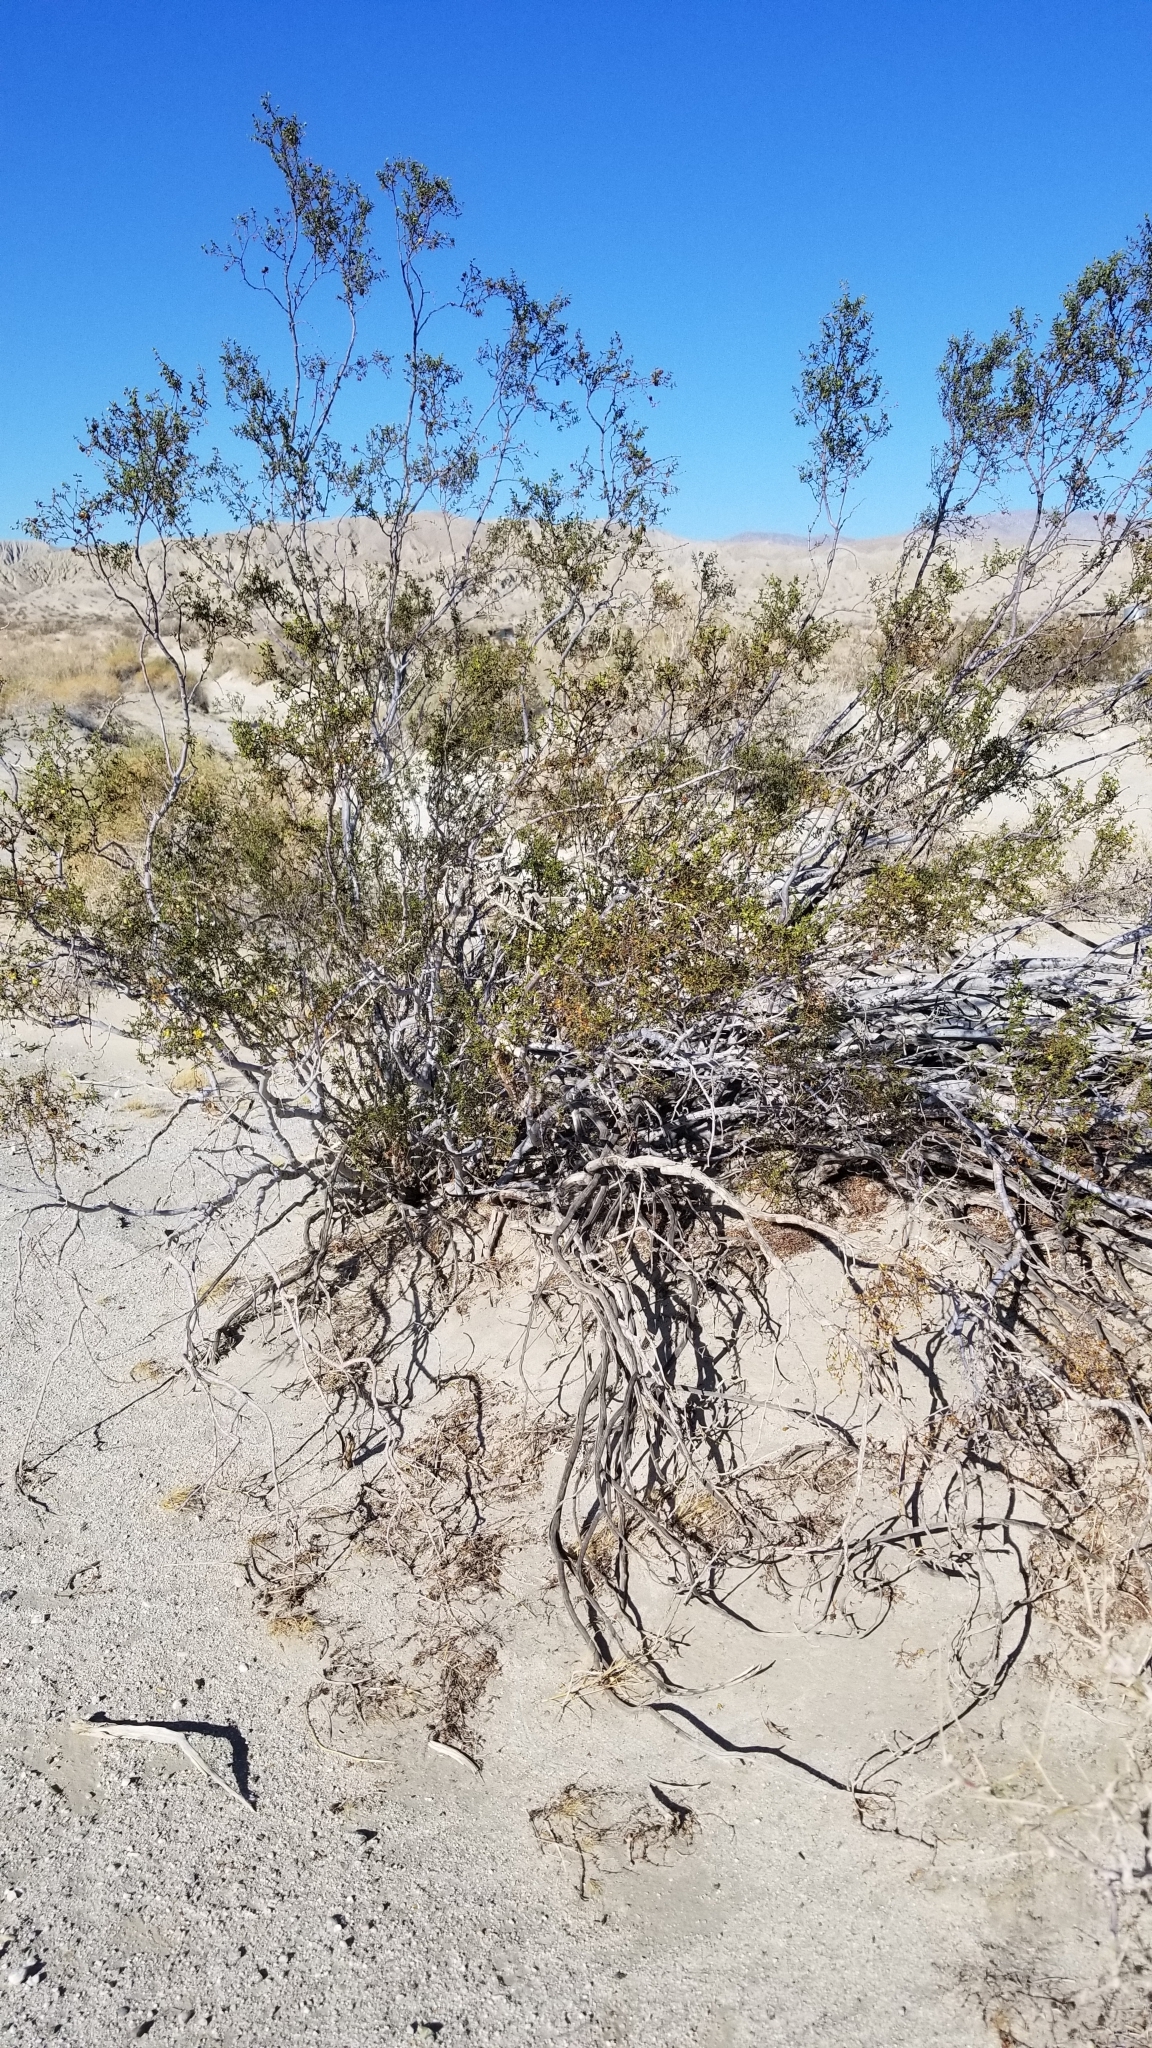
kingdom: Plantae
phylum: Tracheophyta
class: Magnoliopsida
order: Zygophyllales
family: Zygophyllaceae
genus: Larrea
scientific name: Larrea tridentata
